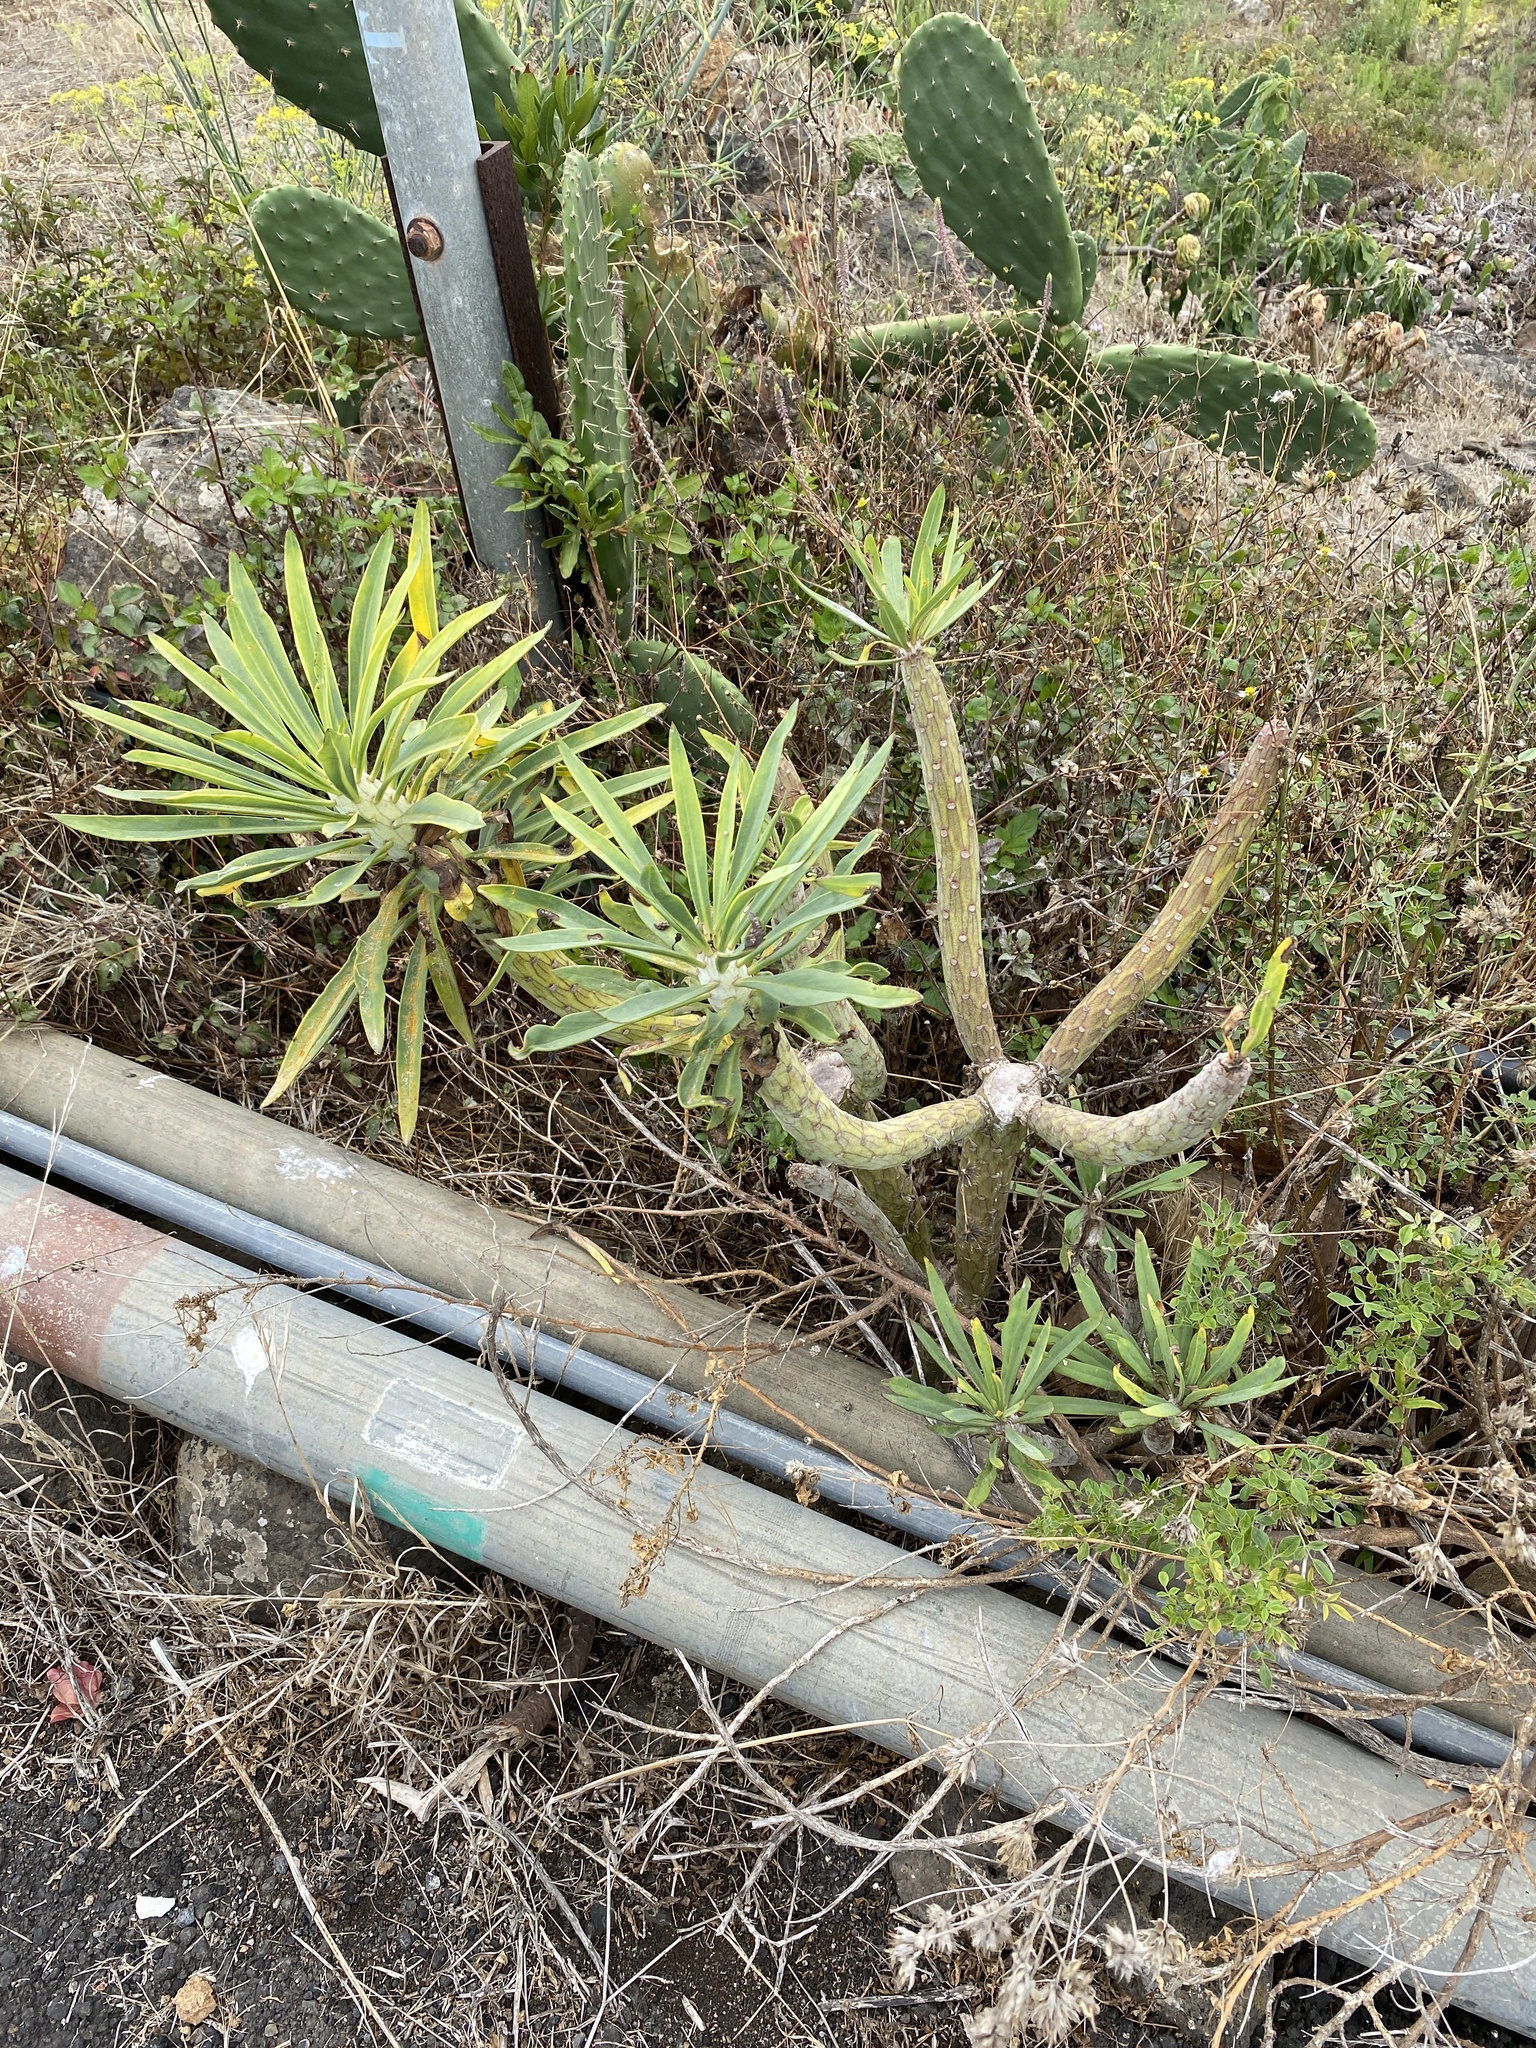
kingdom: Plantae
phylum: Tracheophyta
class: Magnoliopsida
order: Asterales
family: Asteraceae
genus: Kleinia
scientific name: Kleinia neriifolia
